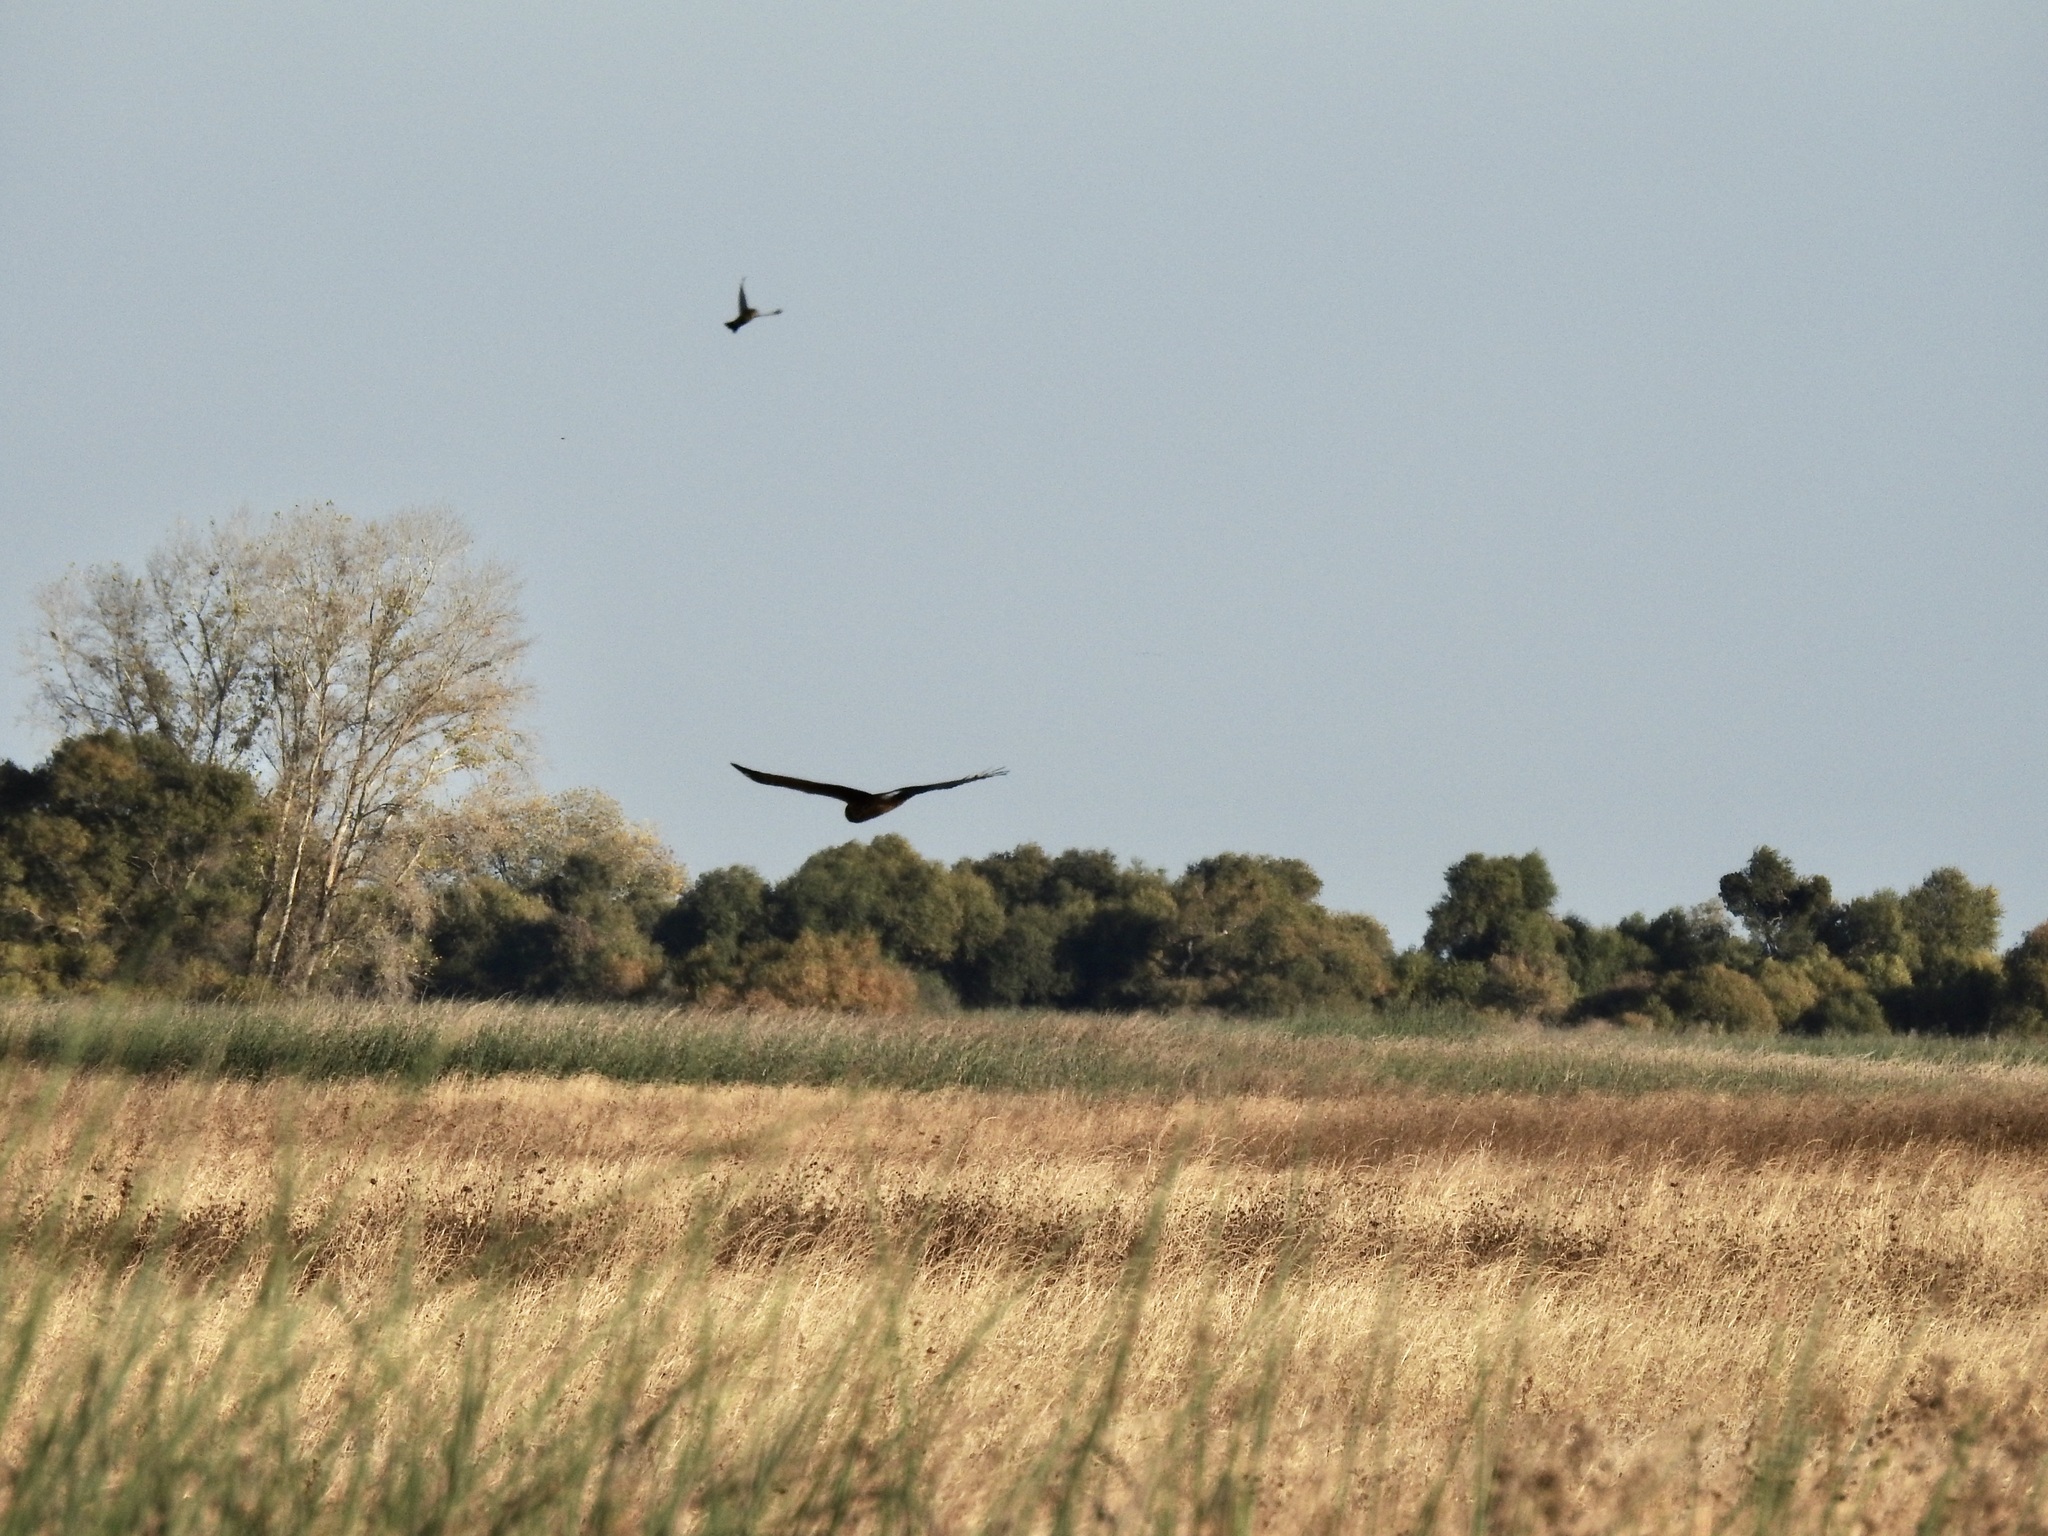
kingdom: Animalia
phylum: Chordata
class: Aves
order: Accipitriformes
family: Accipitridae
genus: Circus
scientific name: Circus cyaneus
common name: Hen harrier
